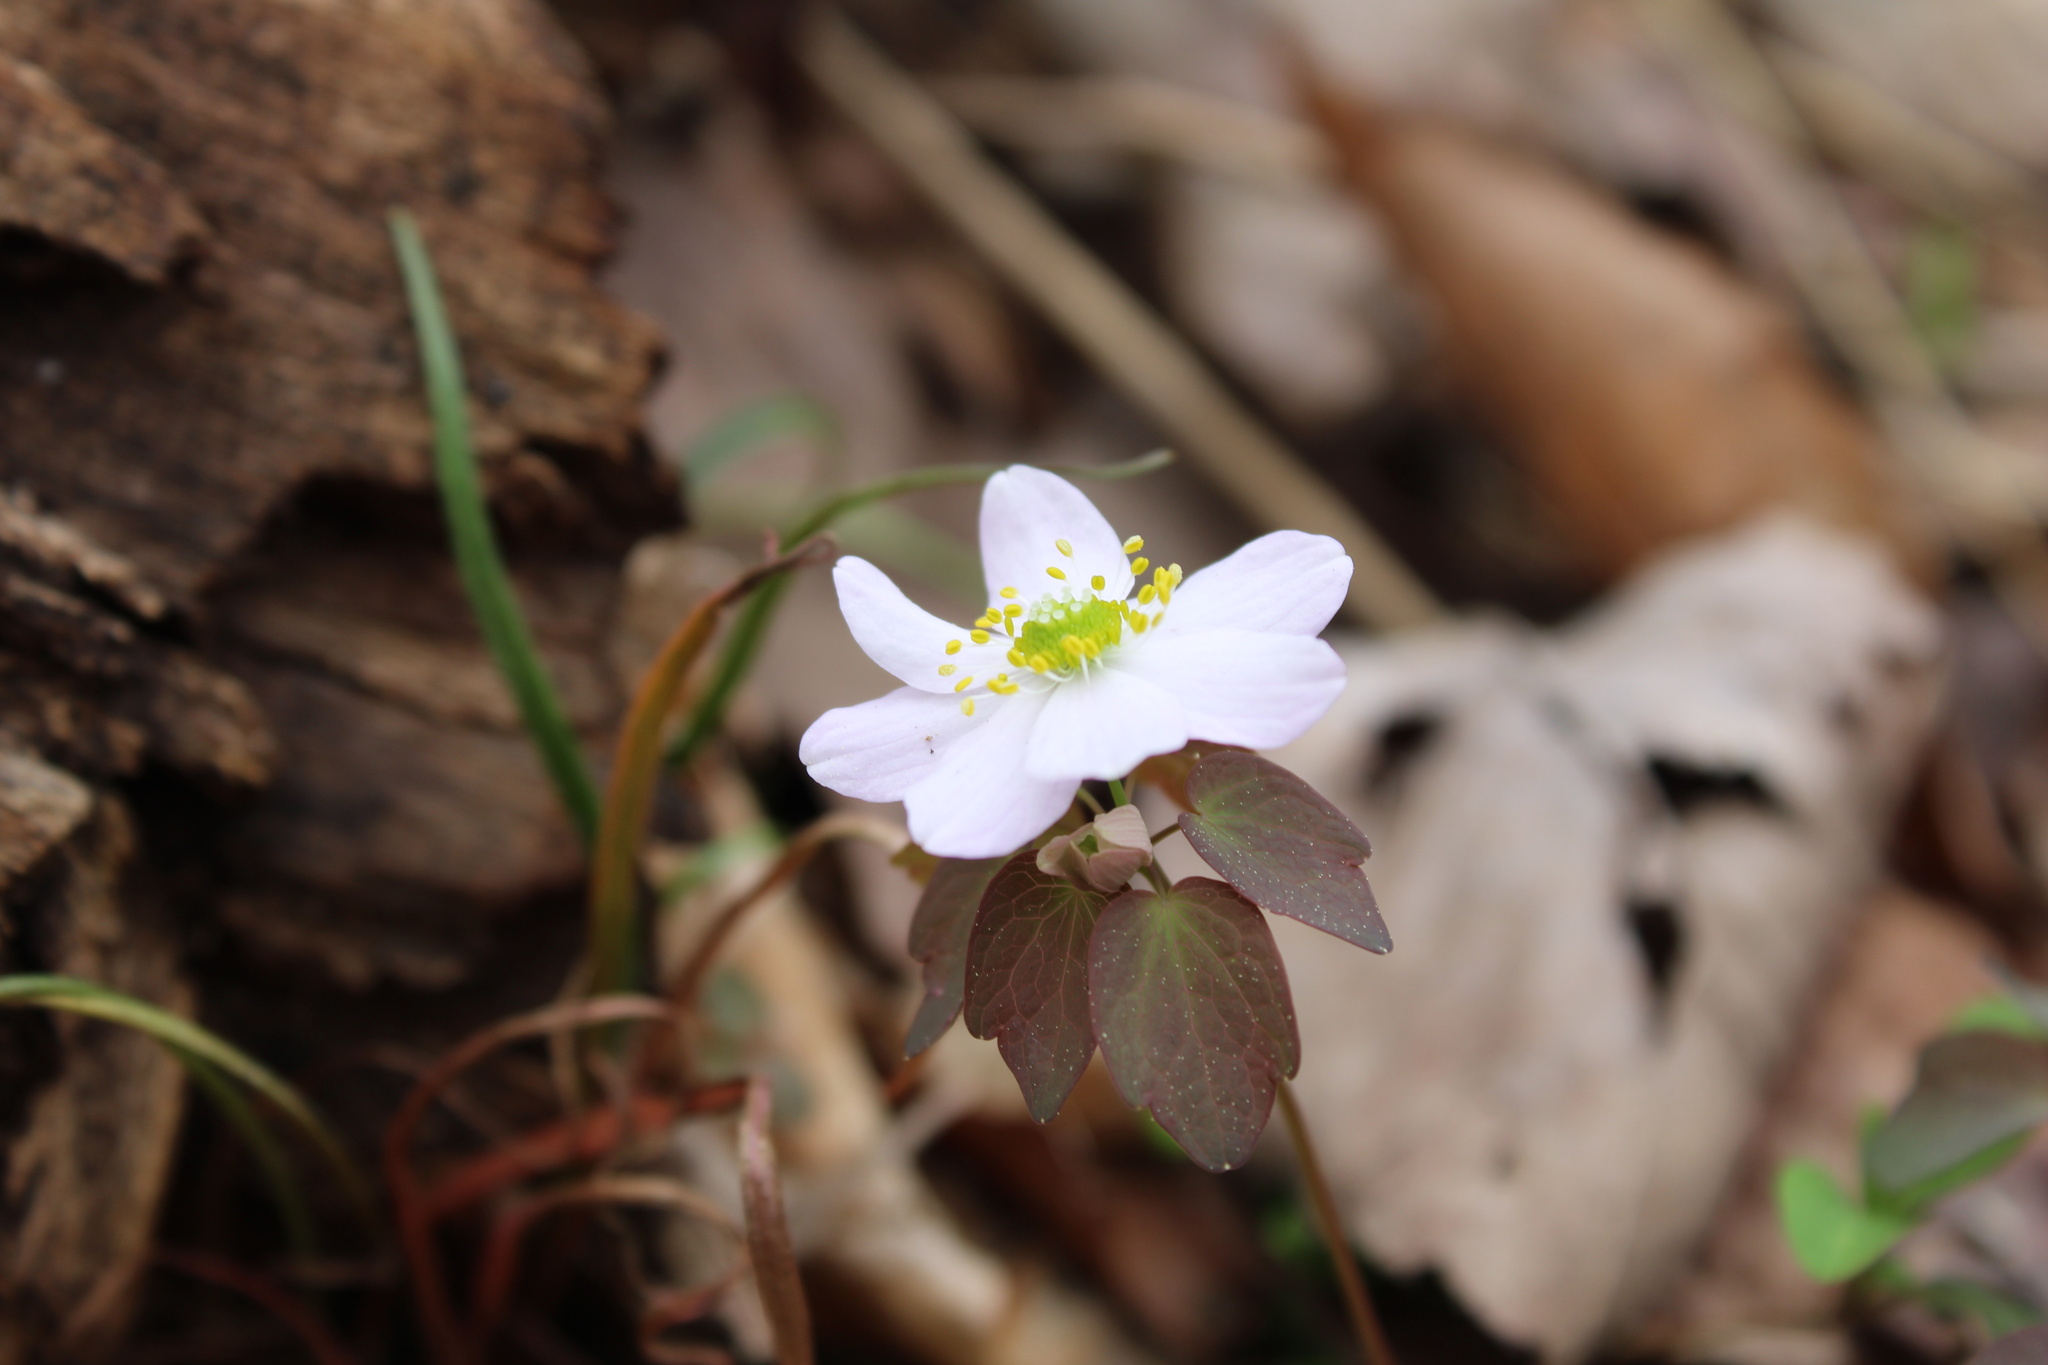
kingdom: Plantae
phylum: Tracheophyta
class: Magnoliopsida
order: Ranunculales
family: Ranunculaceae
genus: Thalictrum
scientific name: Thalictrum thalictroides
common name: Rue-anemone
